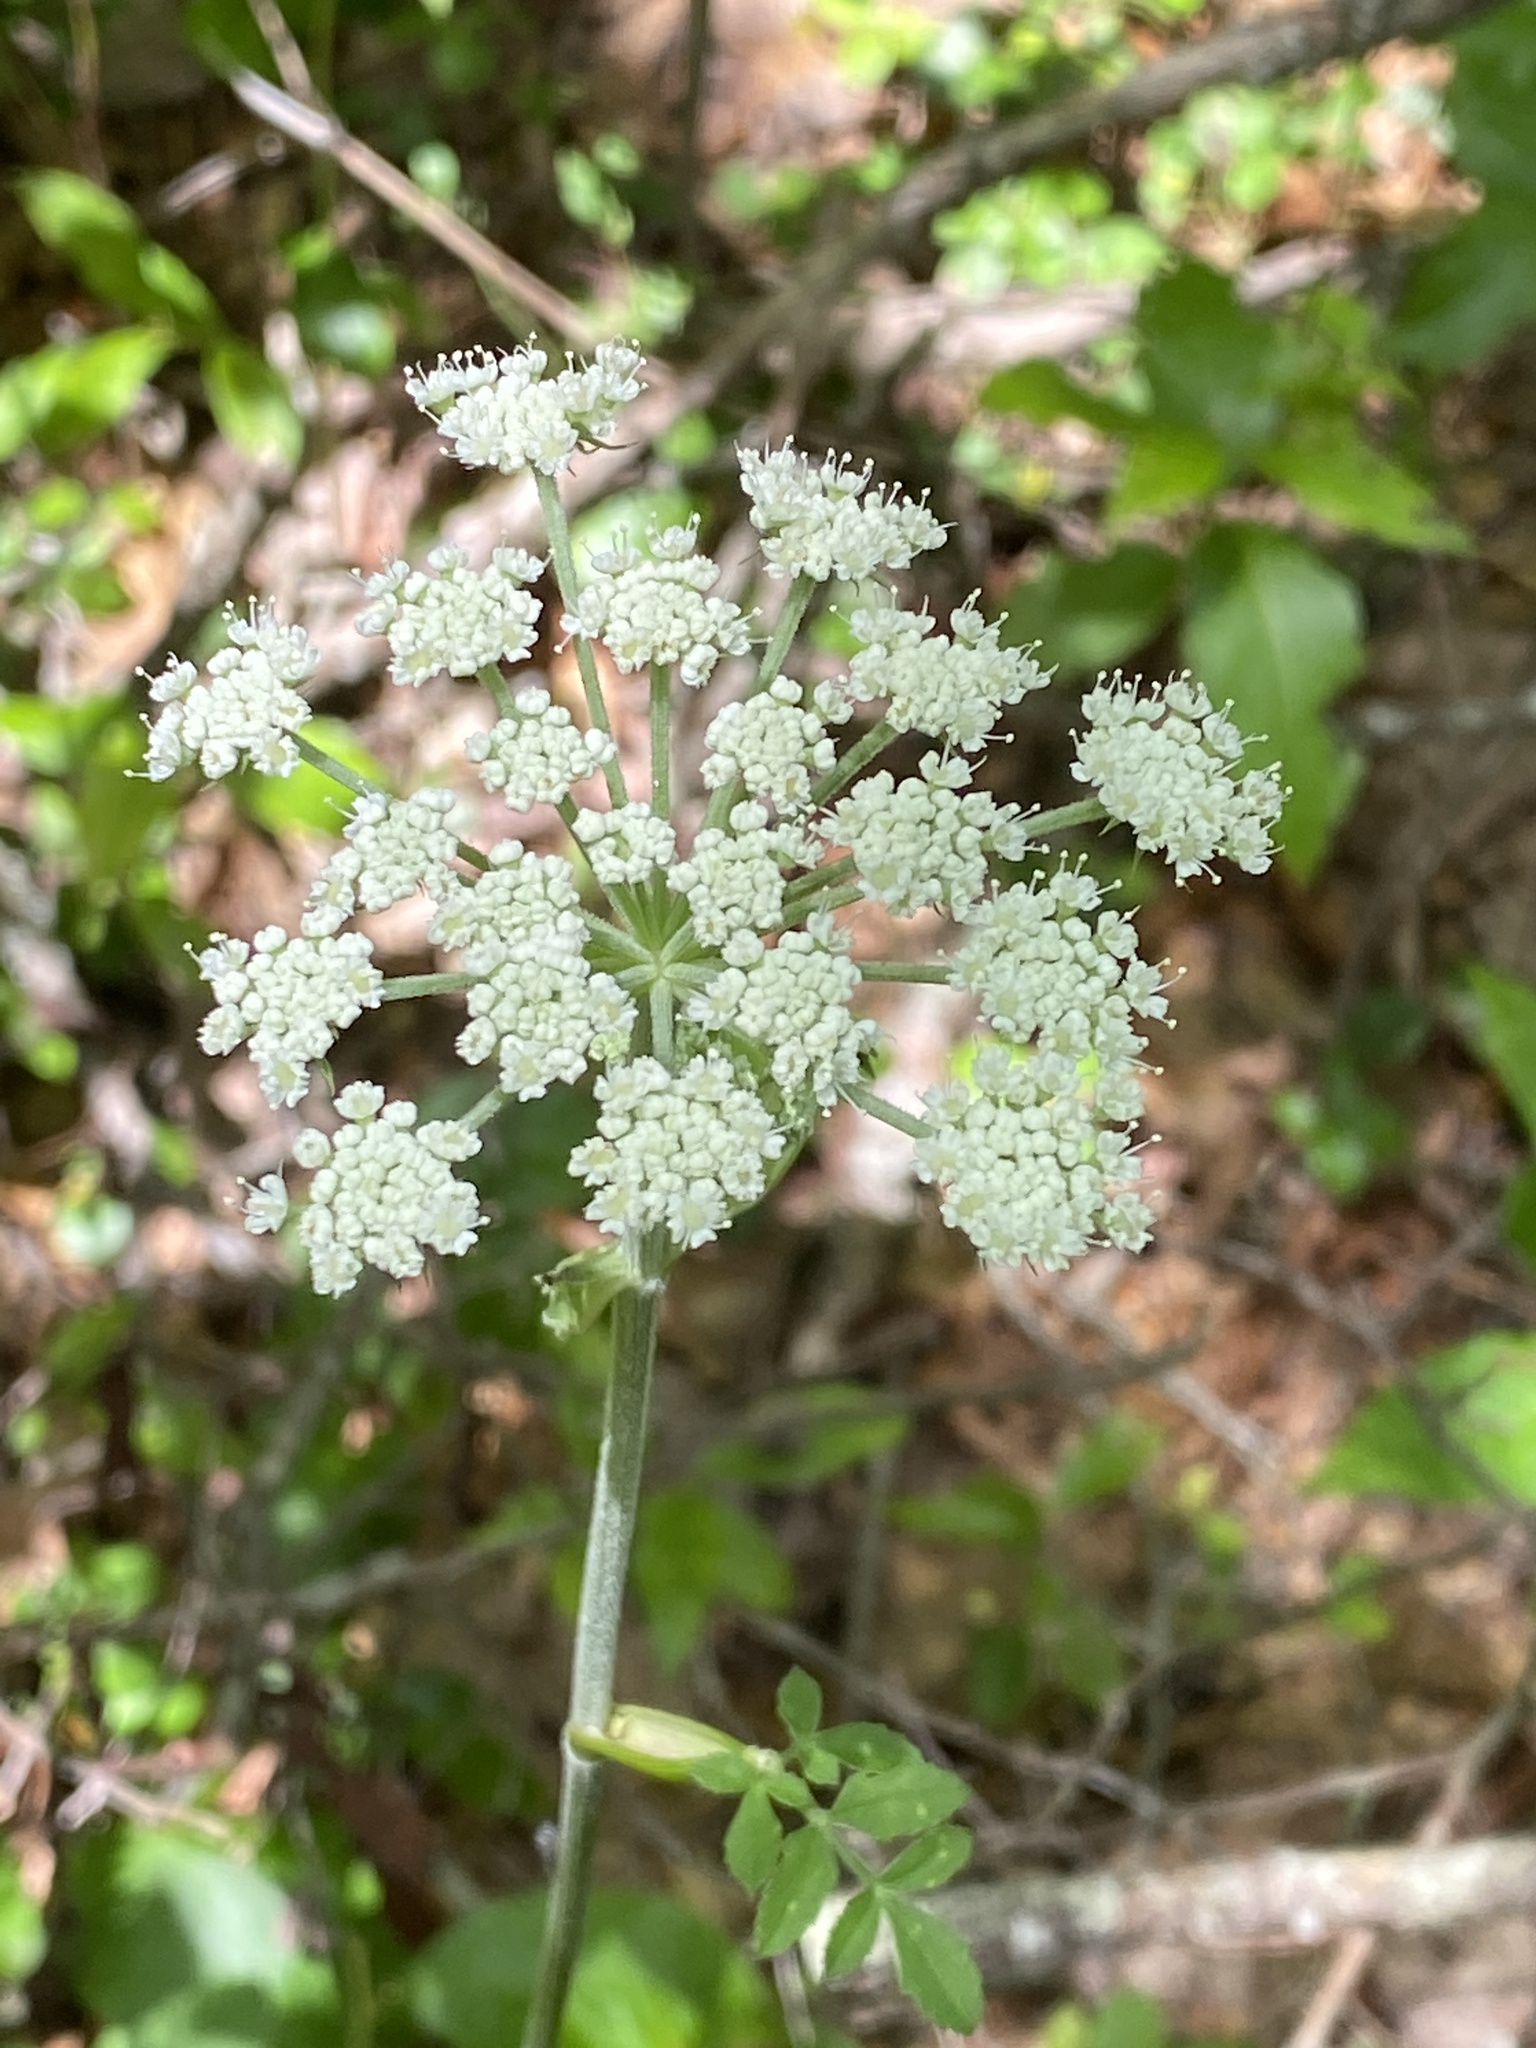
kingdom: Plantae
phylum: Tracheophyta
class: Magnoliopsida
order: Apiales
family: Apiaceae
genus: Ligusticum
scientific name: Ligusticum canadense
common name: American lovage
